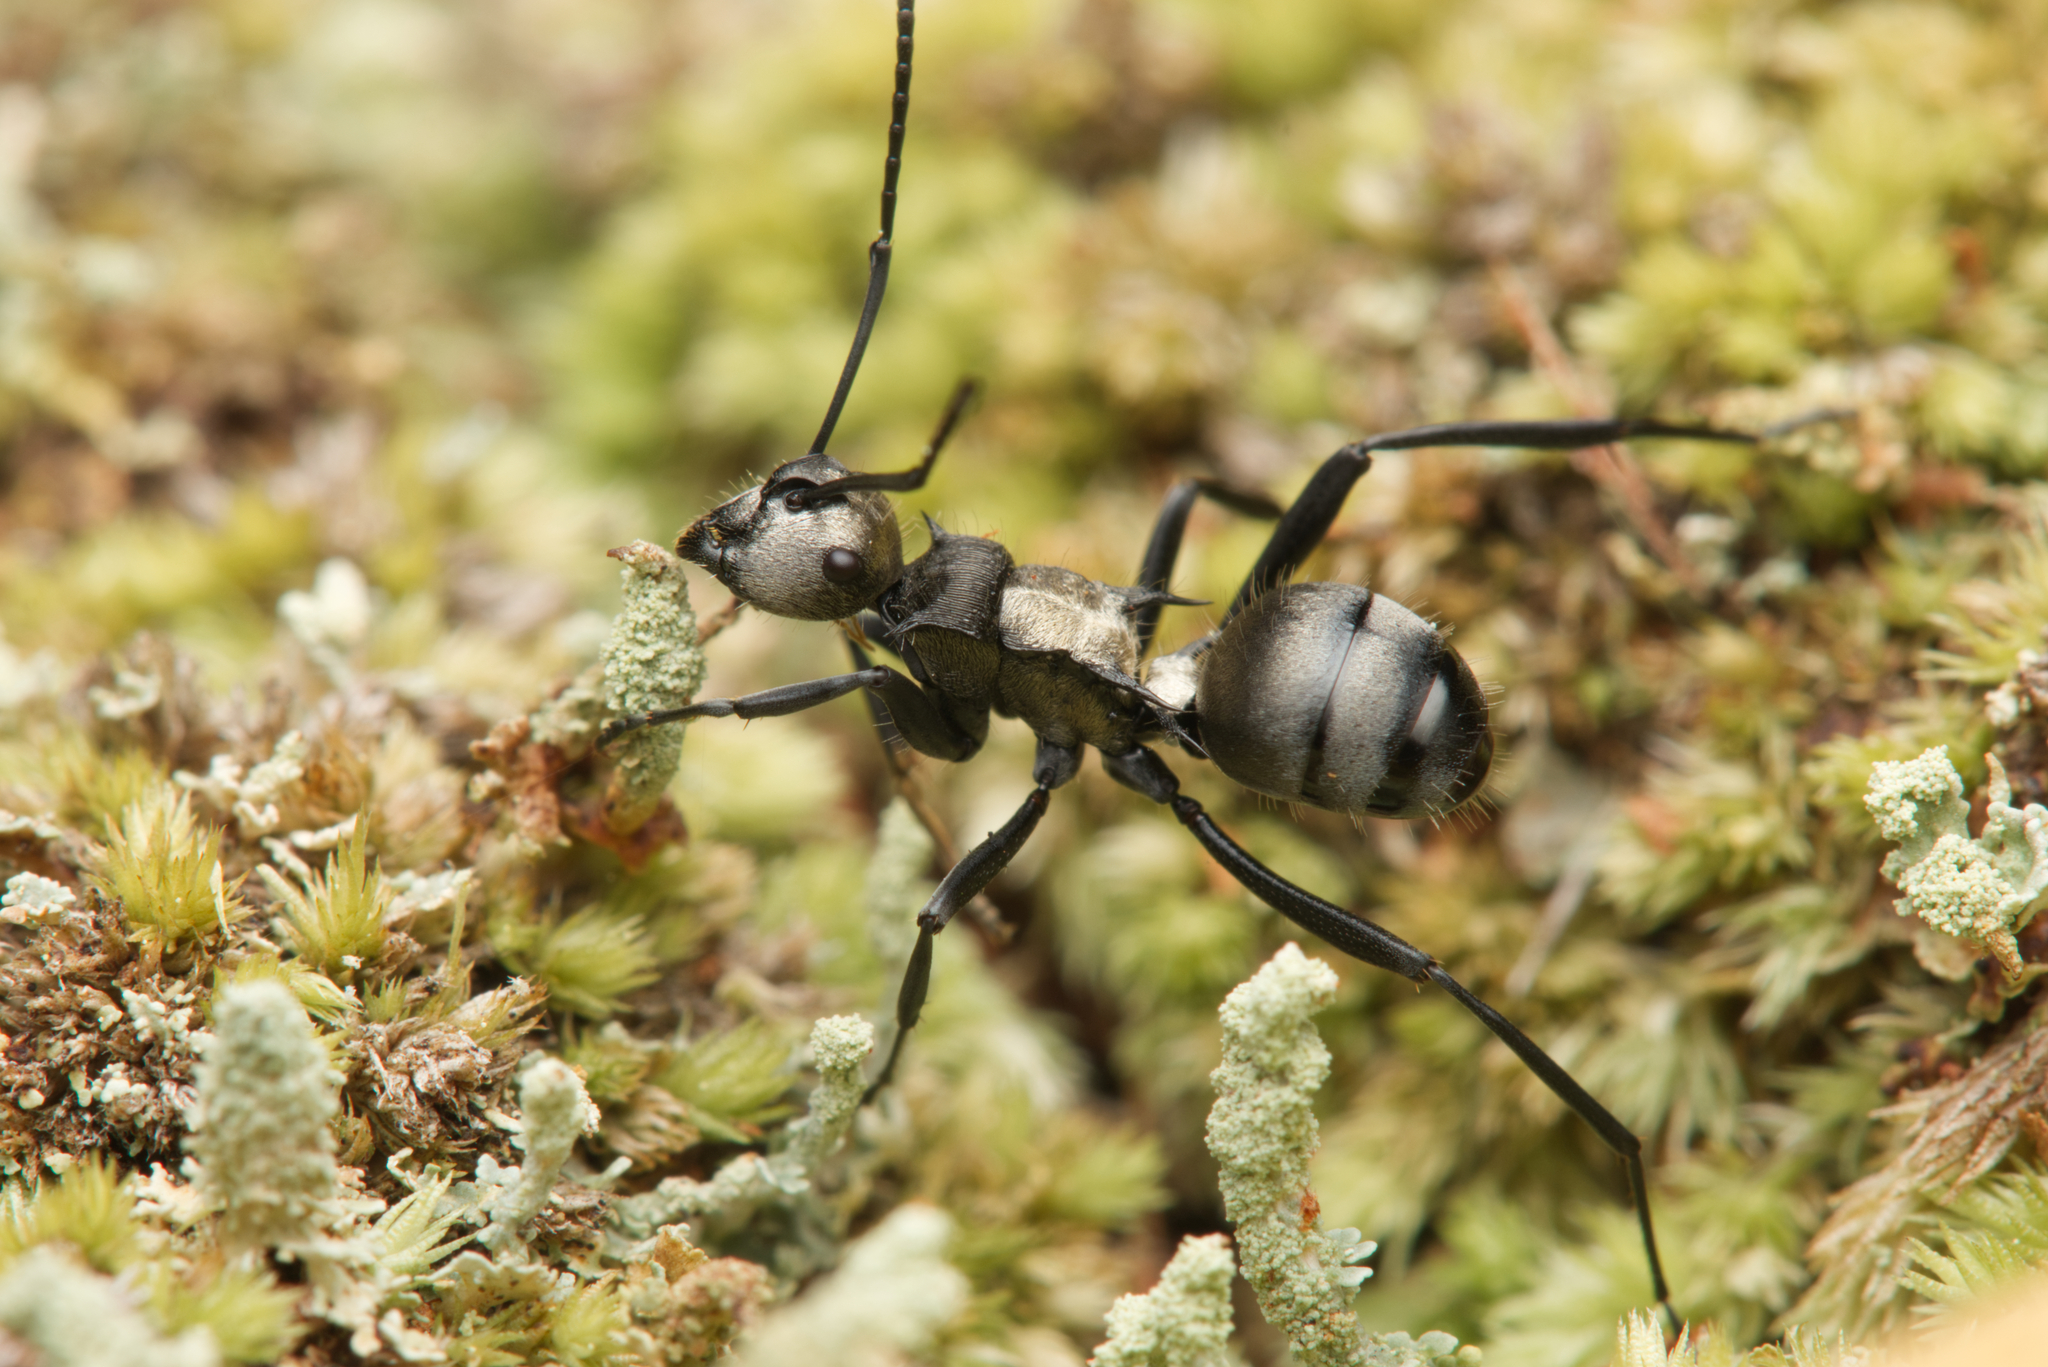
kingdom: Animalia
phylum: Arthropoda
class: Insecta
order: Hymenoptera
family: Formicidae
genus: Polyrhachis
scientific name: Polyrhachis daemeli
